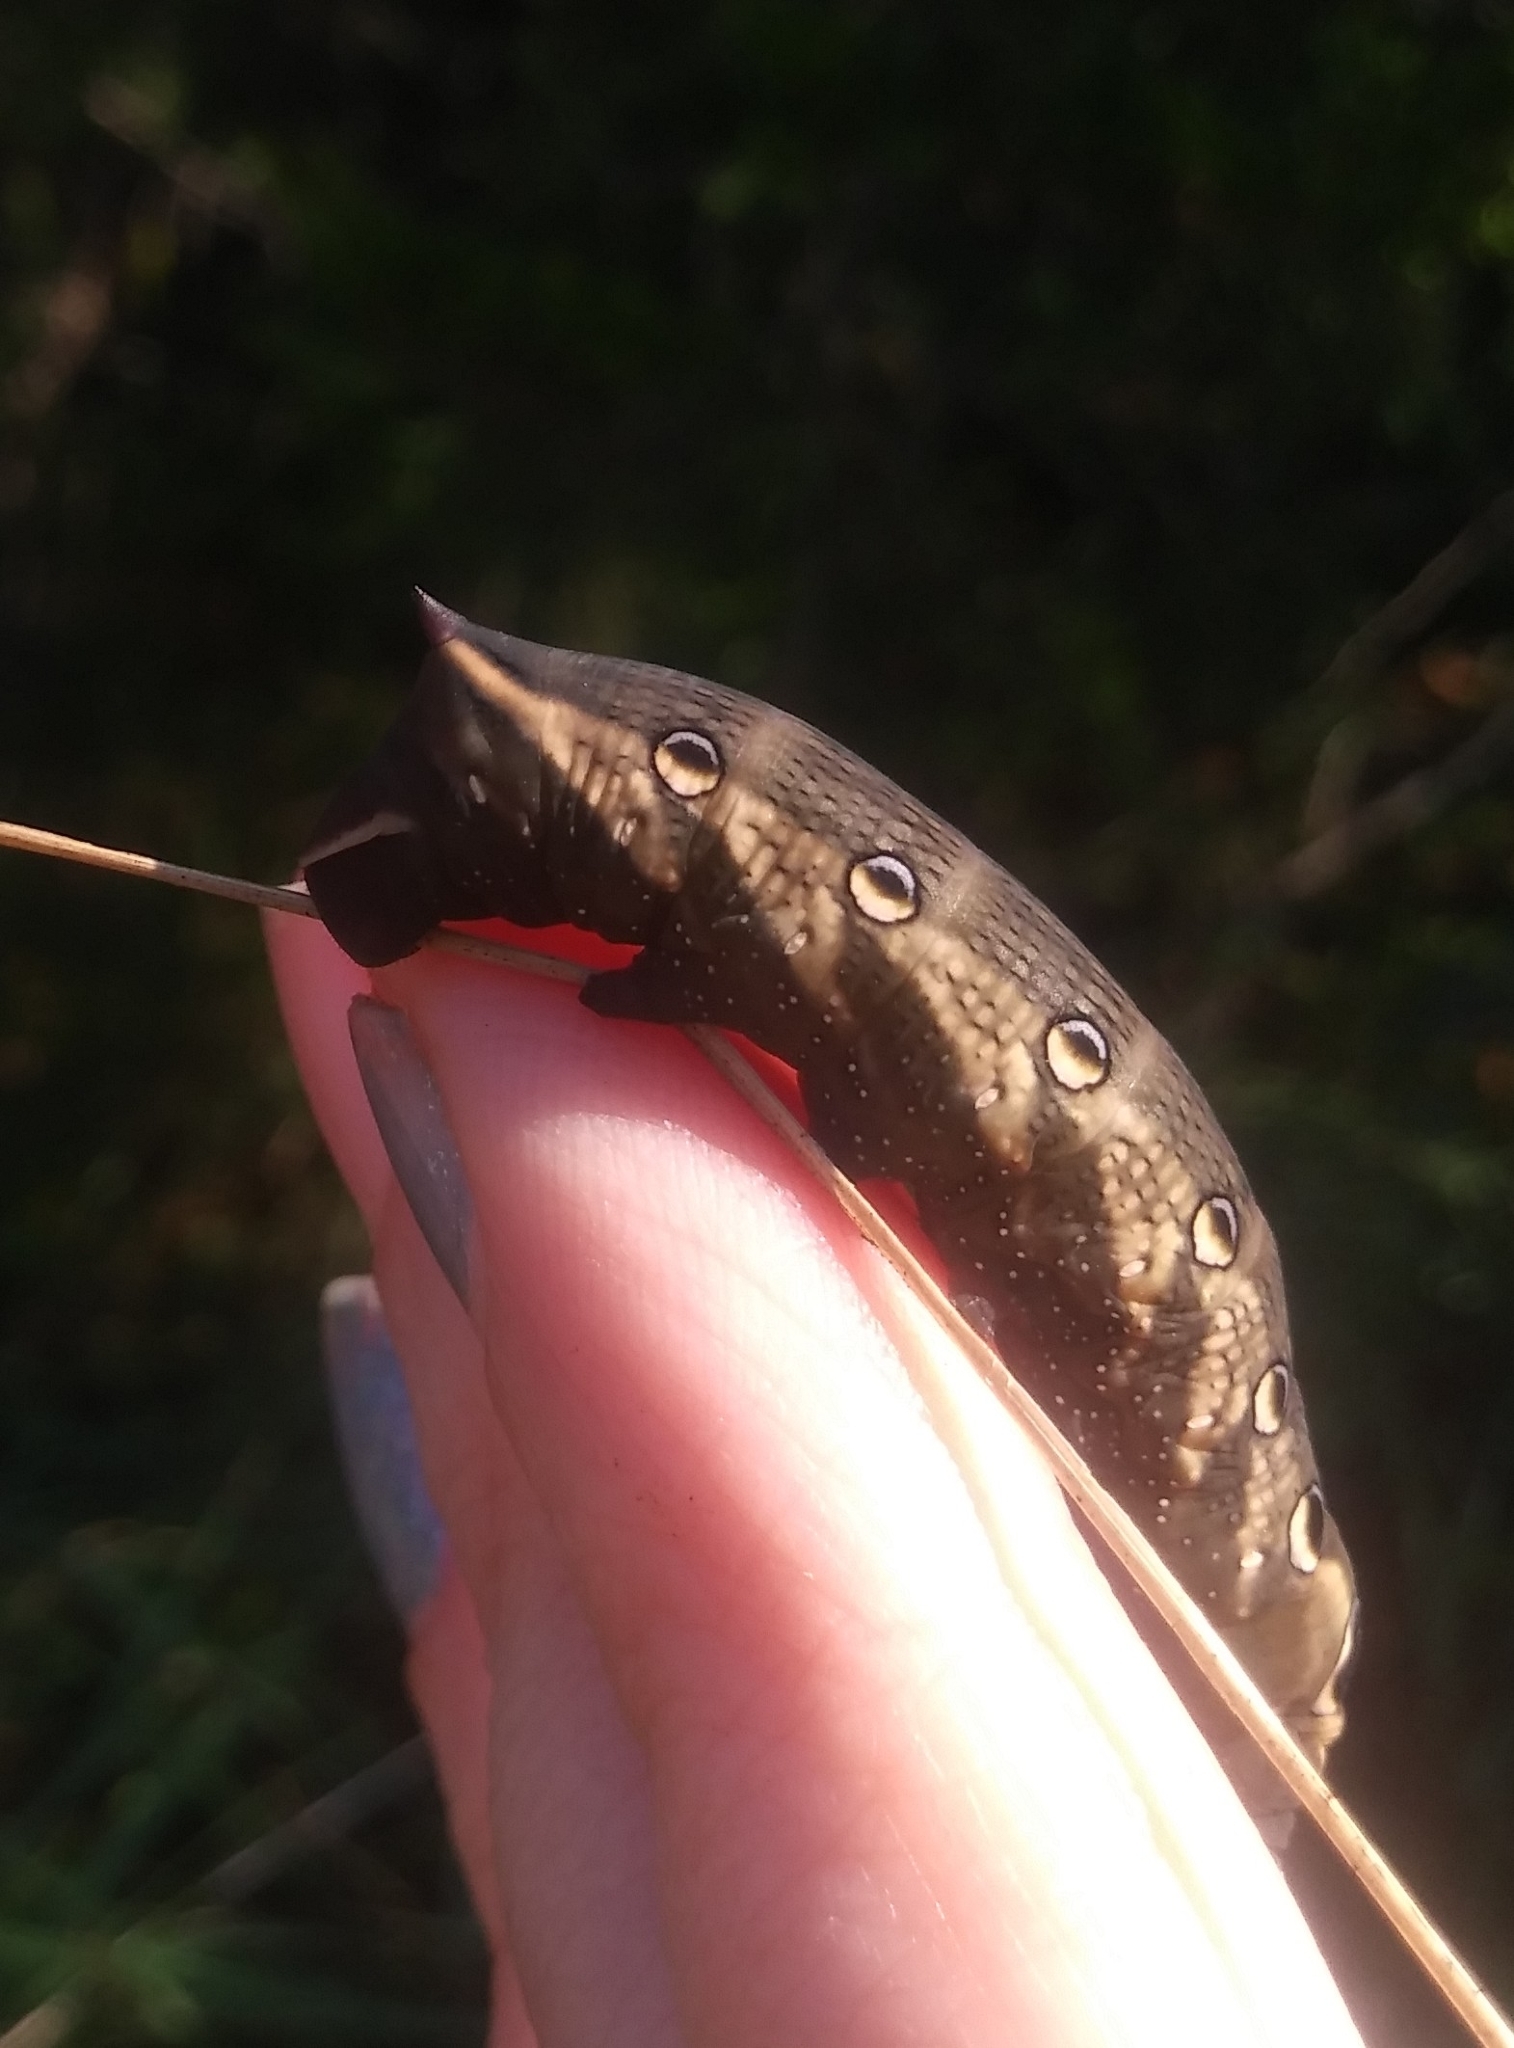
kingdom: Animalia
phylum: Arthropoda
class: Insecta
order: Lepidoptera
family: Sphingidae
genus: Xylophanes
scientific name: Xylophanes tersa
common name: Tersa sphinx
